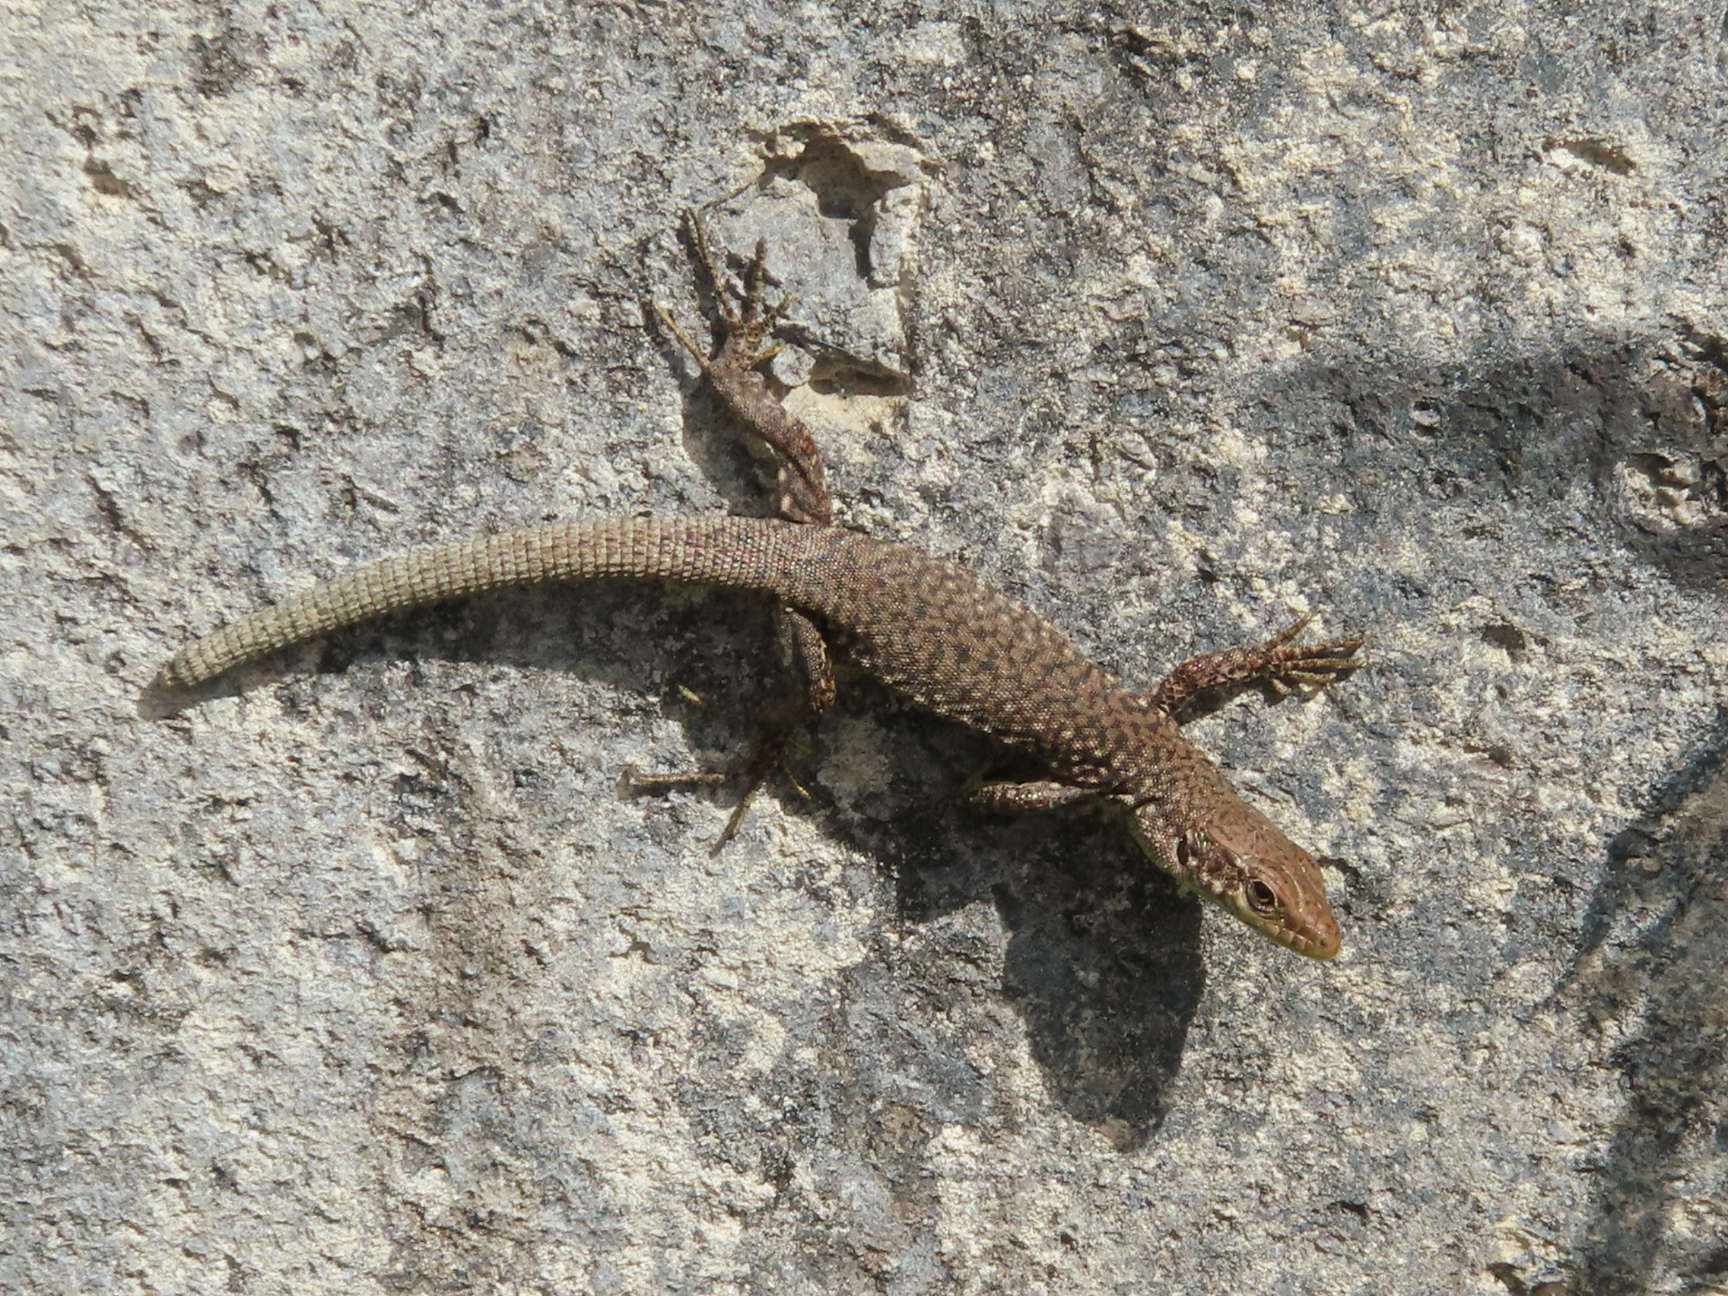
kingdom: Animalia
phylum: Chordata
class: Squamata
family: Lacertidae
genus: Darevskia
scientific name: Darevskia
